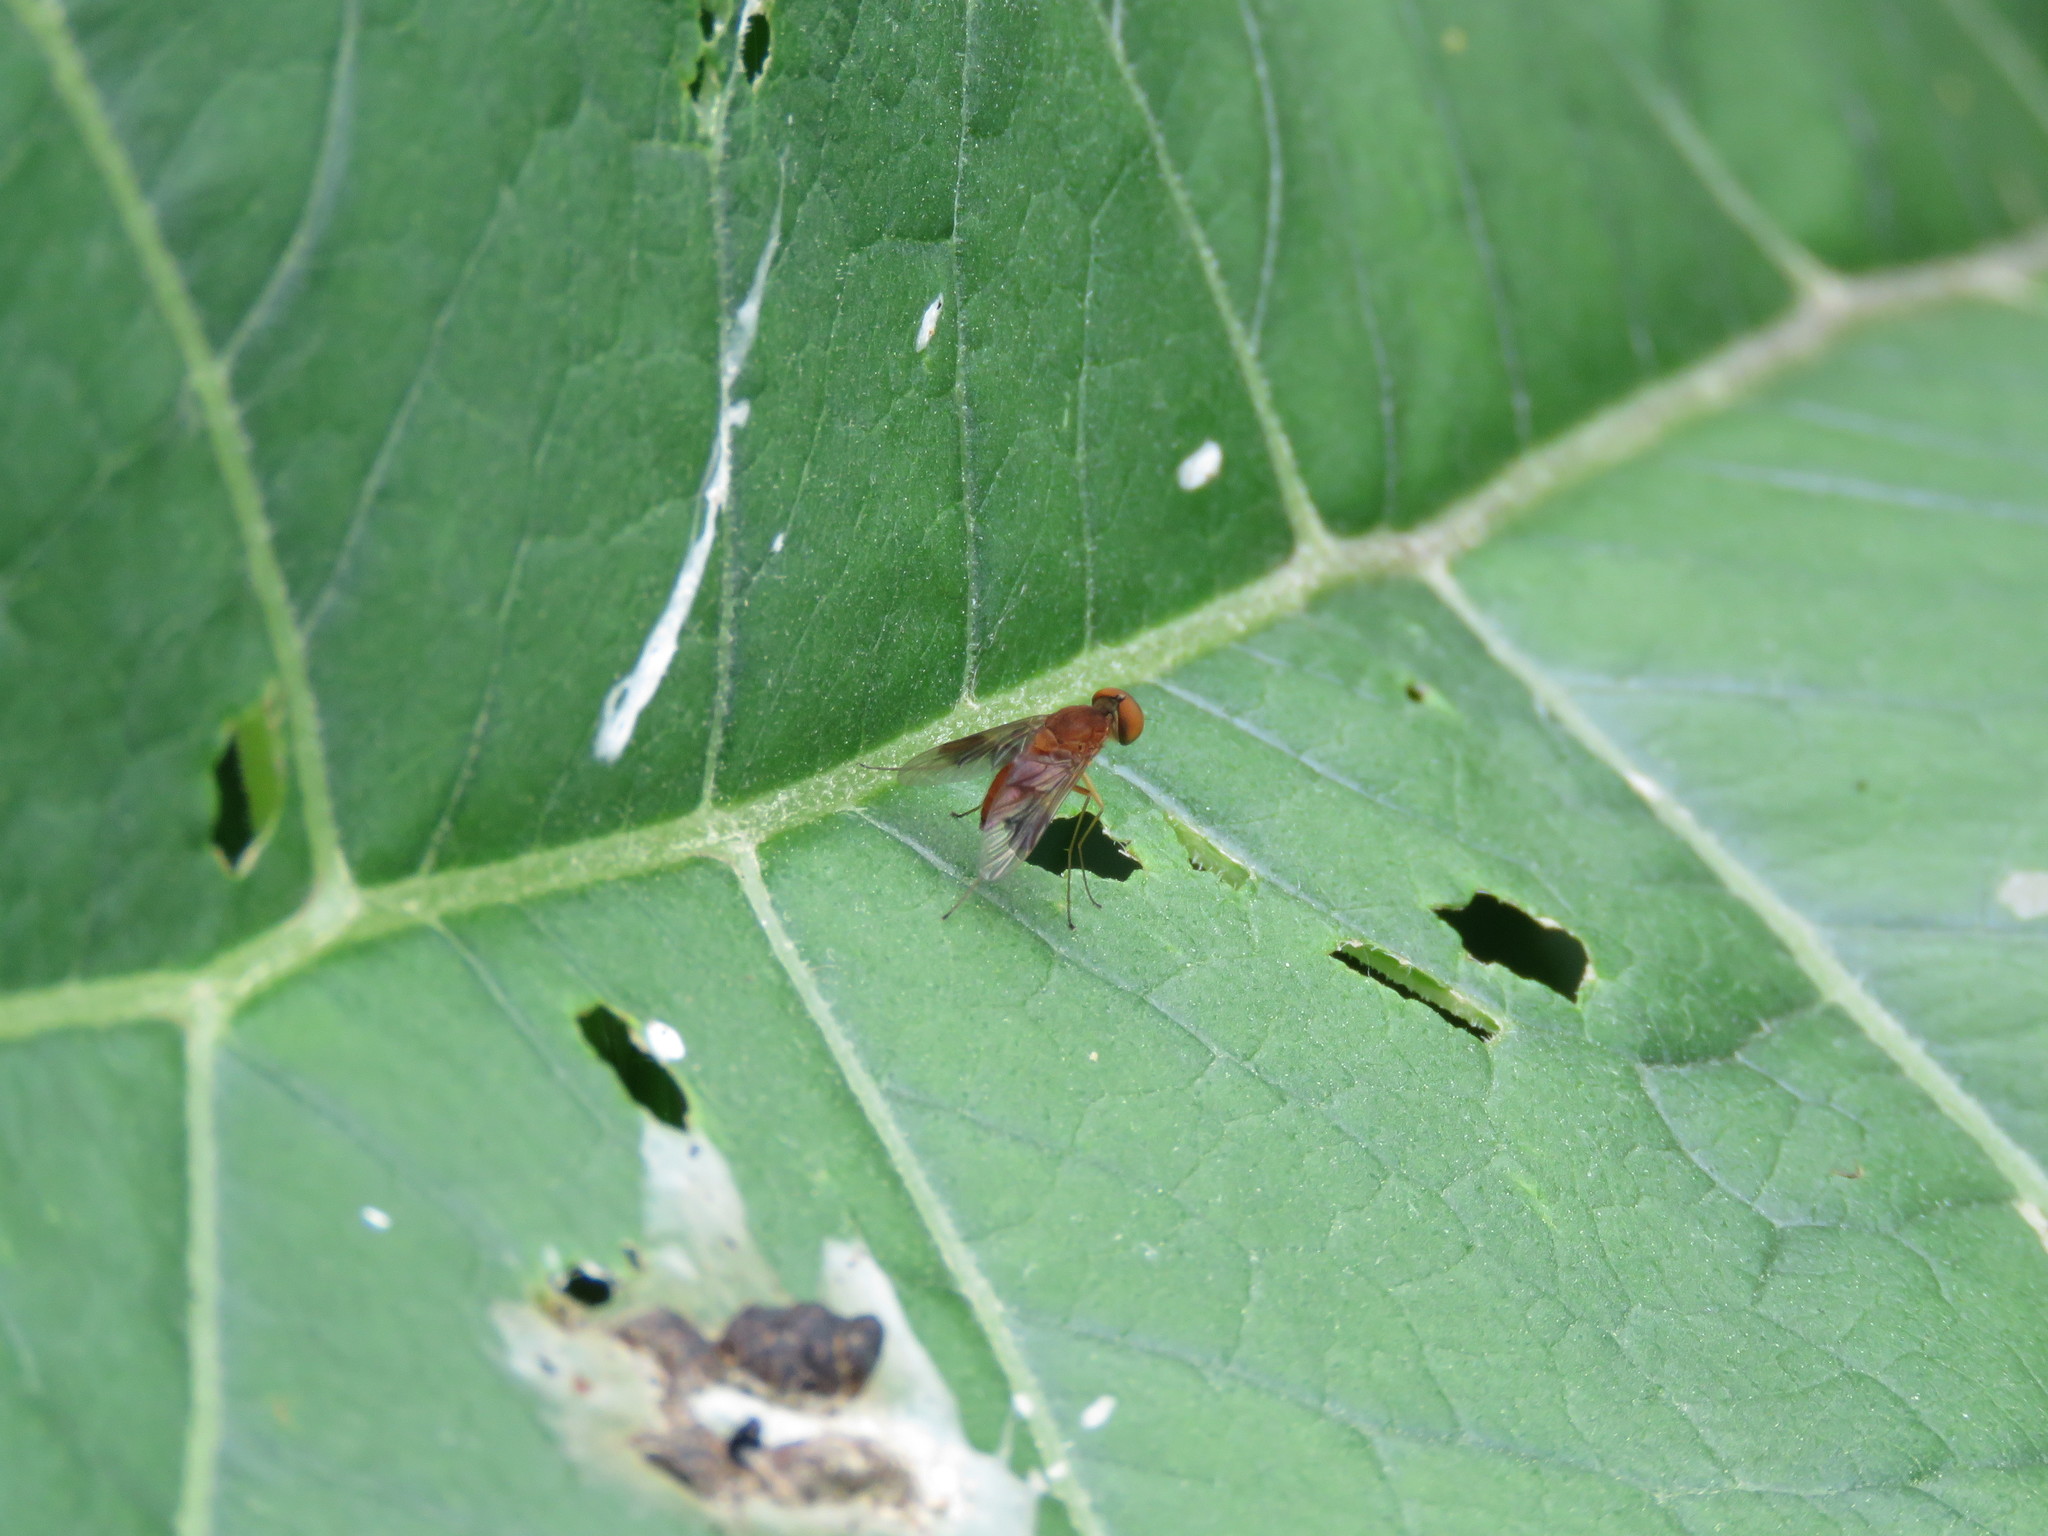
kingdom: Animalia
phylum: Arthropoda
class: Insecta
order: Diptera
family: Rhagionidae
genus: Chrysopilus
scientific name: Chrysopilus quadratus
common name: Quadrate snipe fly
